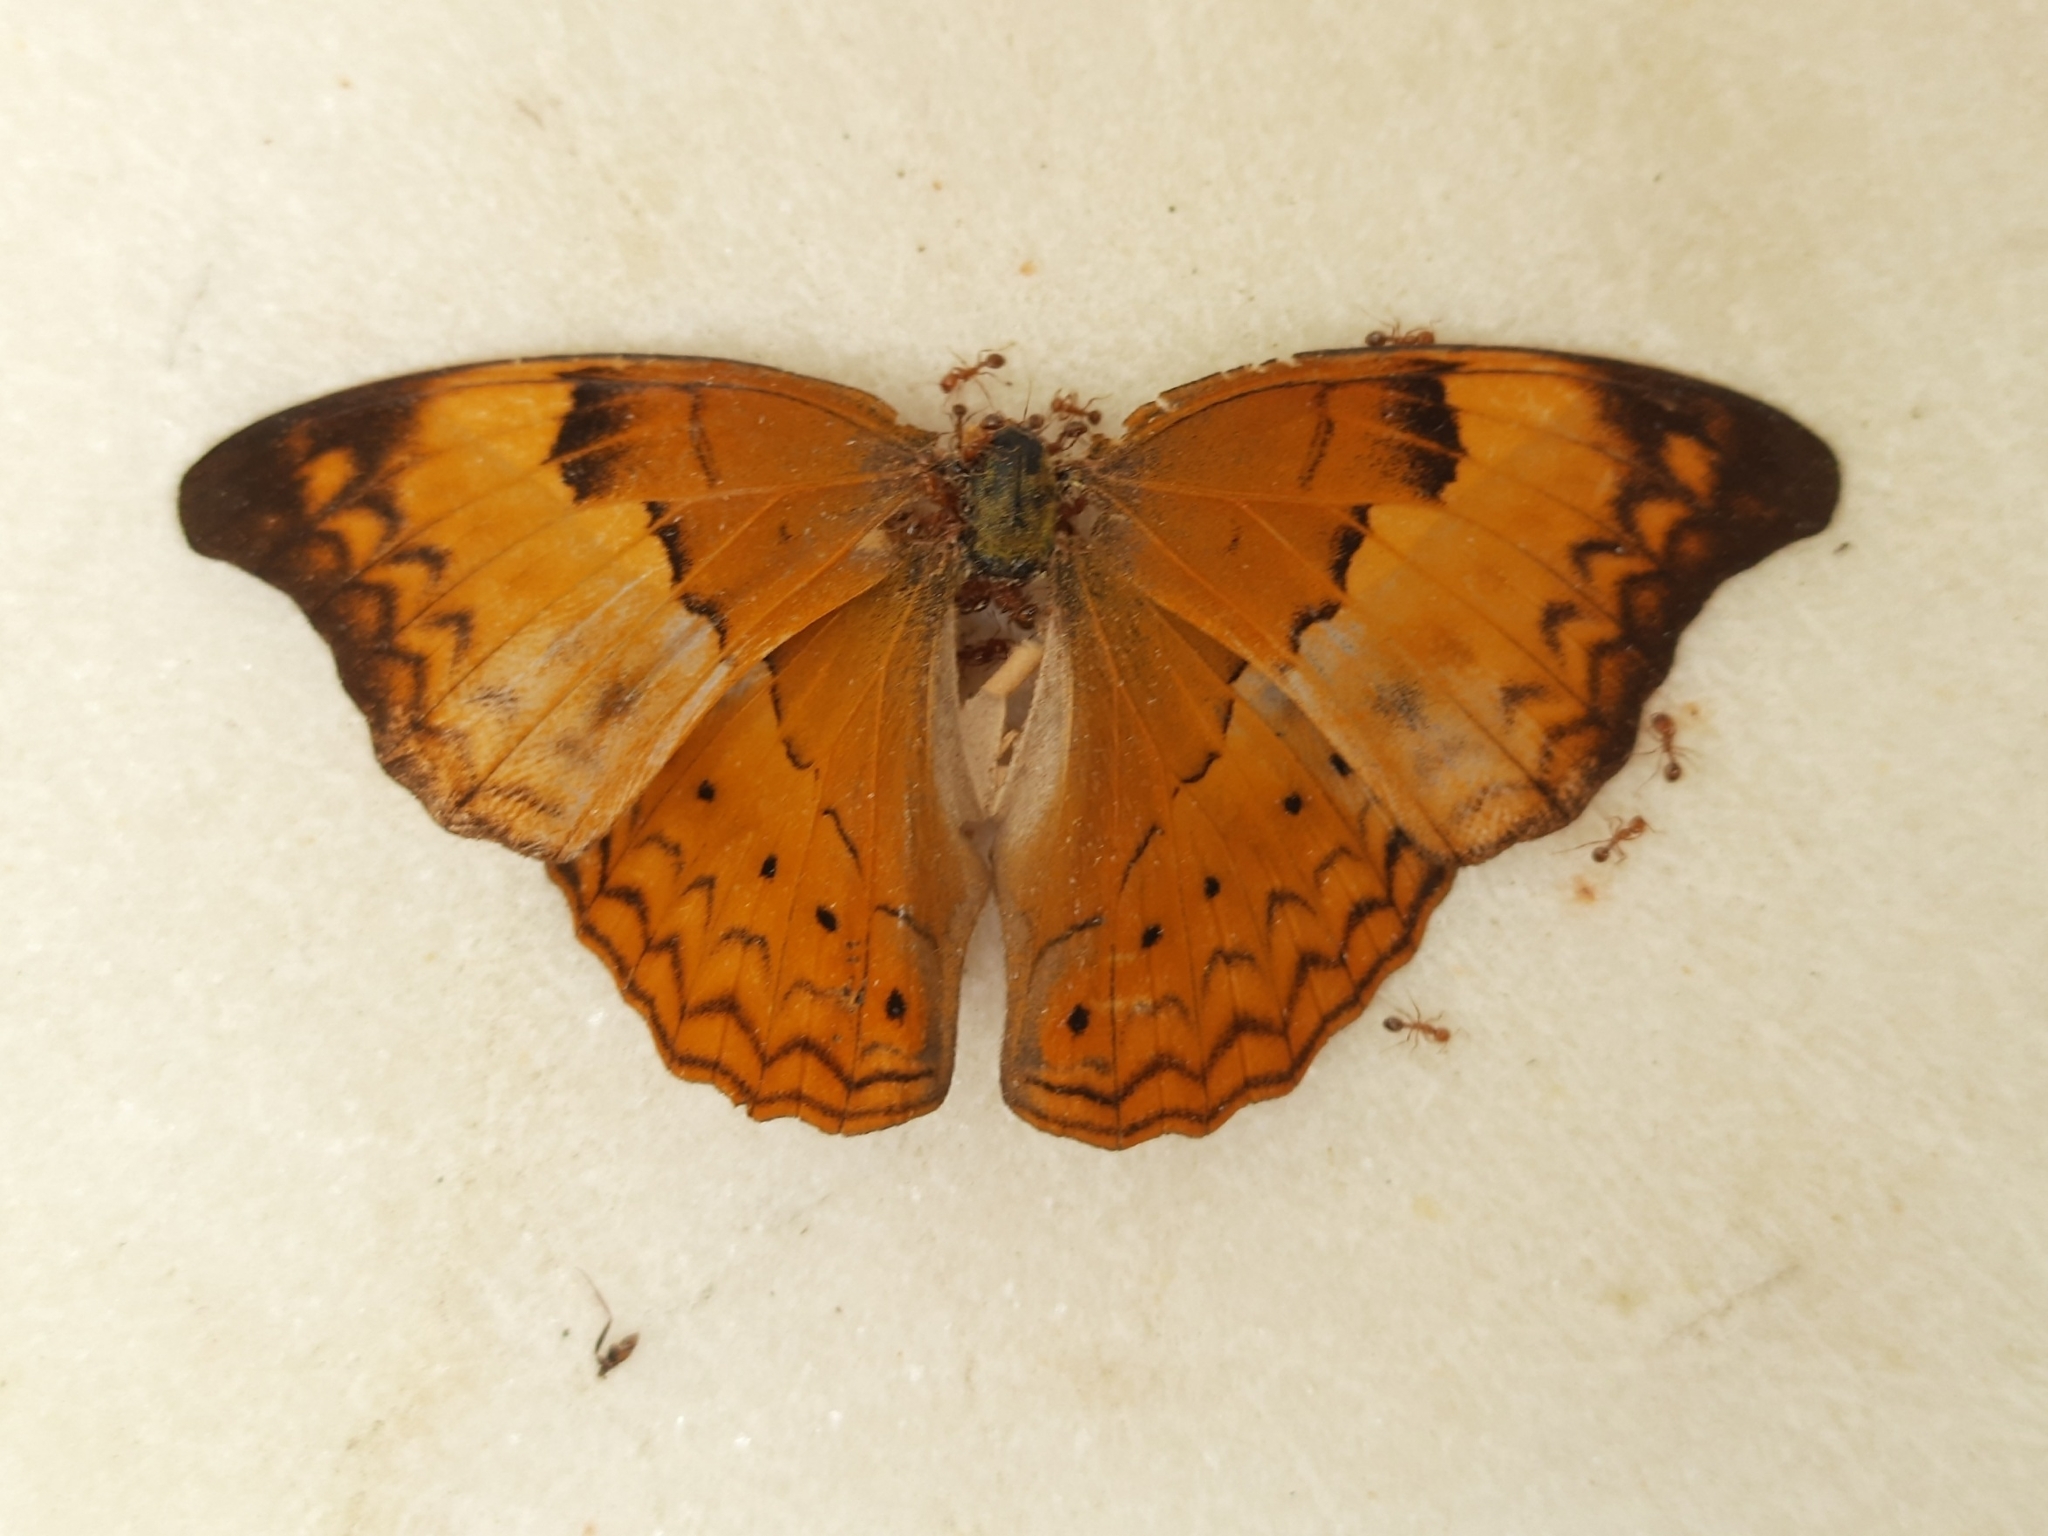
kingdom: Animalia
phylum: Arthropoda
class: Insecta
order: Lepidoptera
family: Nymphalidae
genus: Cirrochroa
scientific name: Cirrochroa thais
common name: Tamil yeoman
